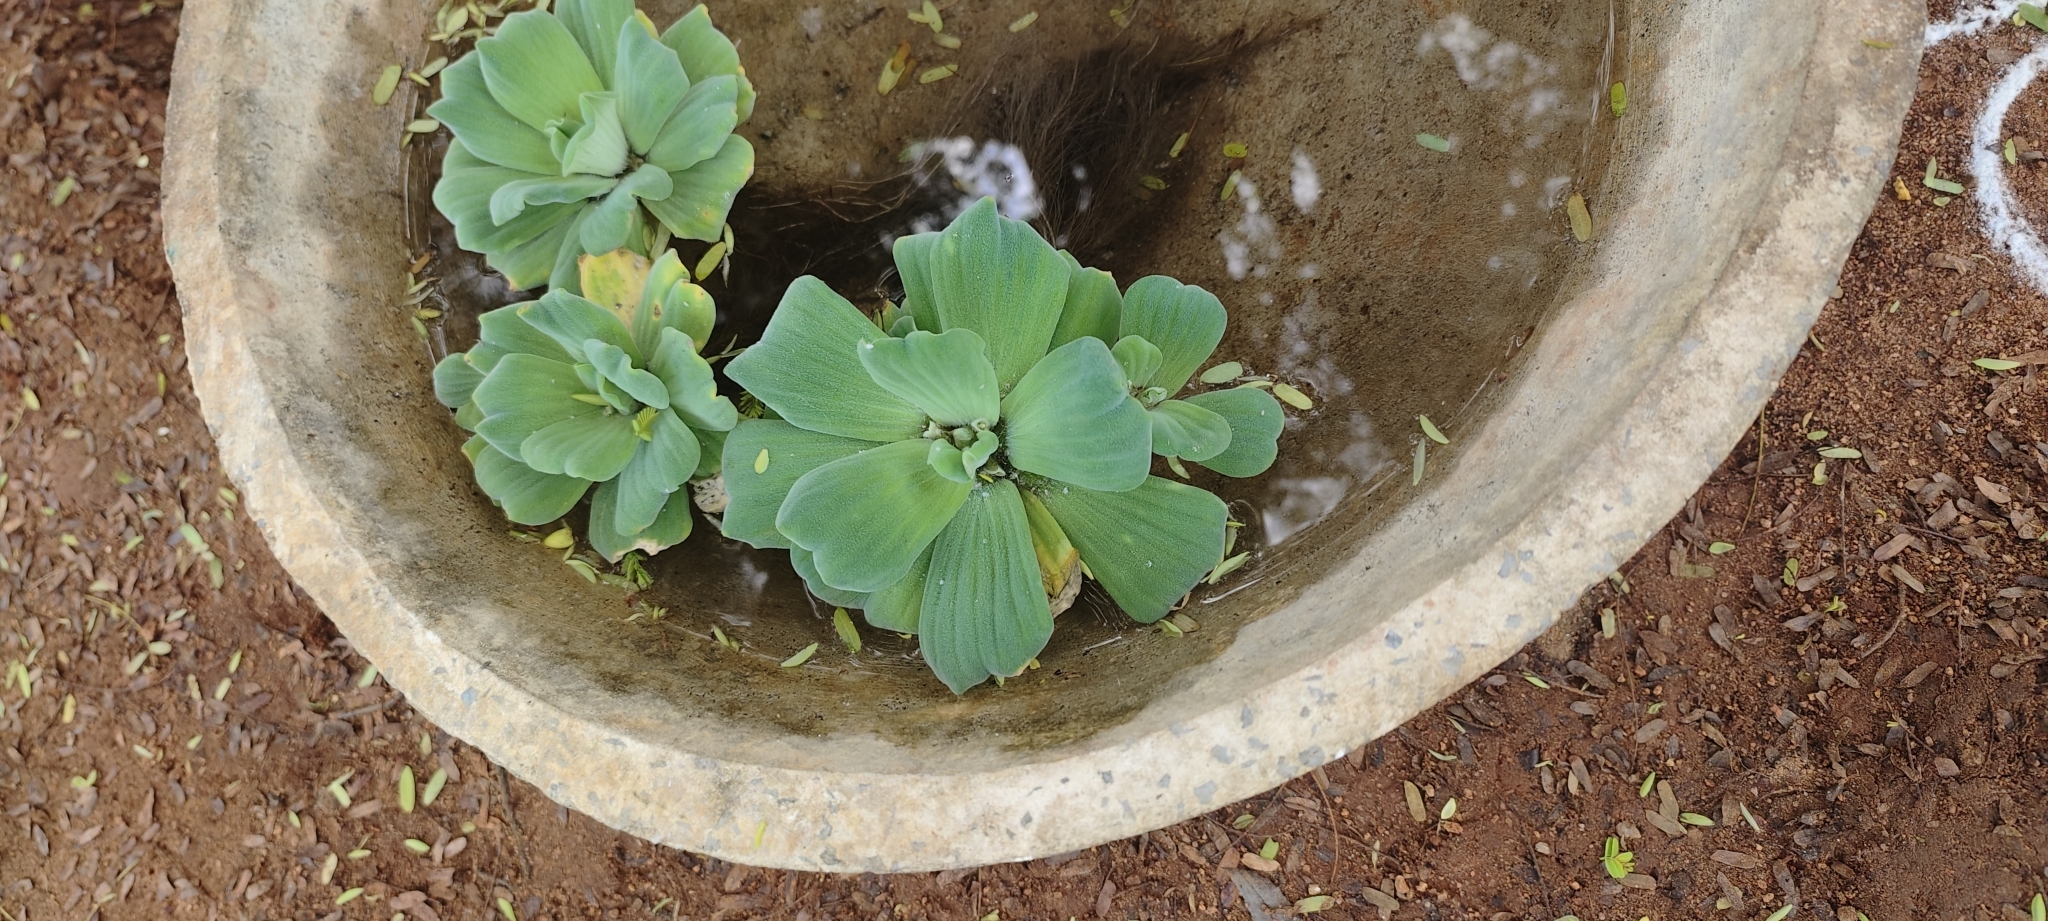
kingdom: Plantae
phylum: Tracheophyta
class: Liliopsida
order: Alismatales
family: Araceae
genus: Pistia
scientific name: Pistia stratiotes
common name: Water lettuce
